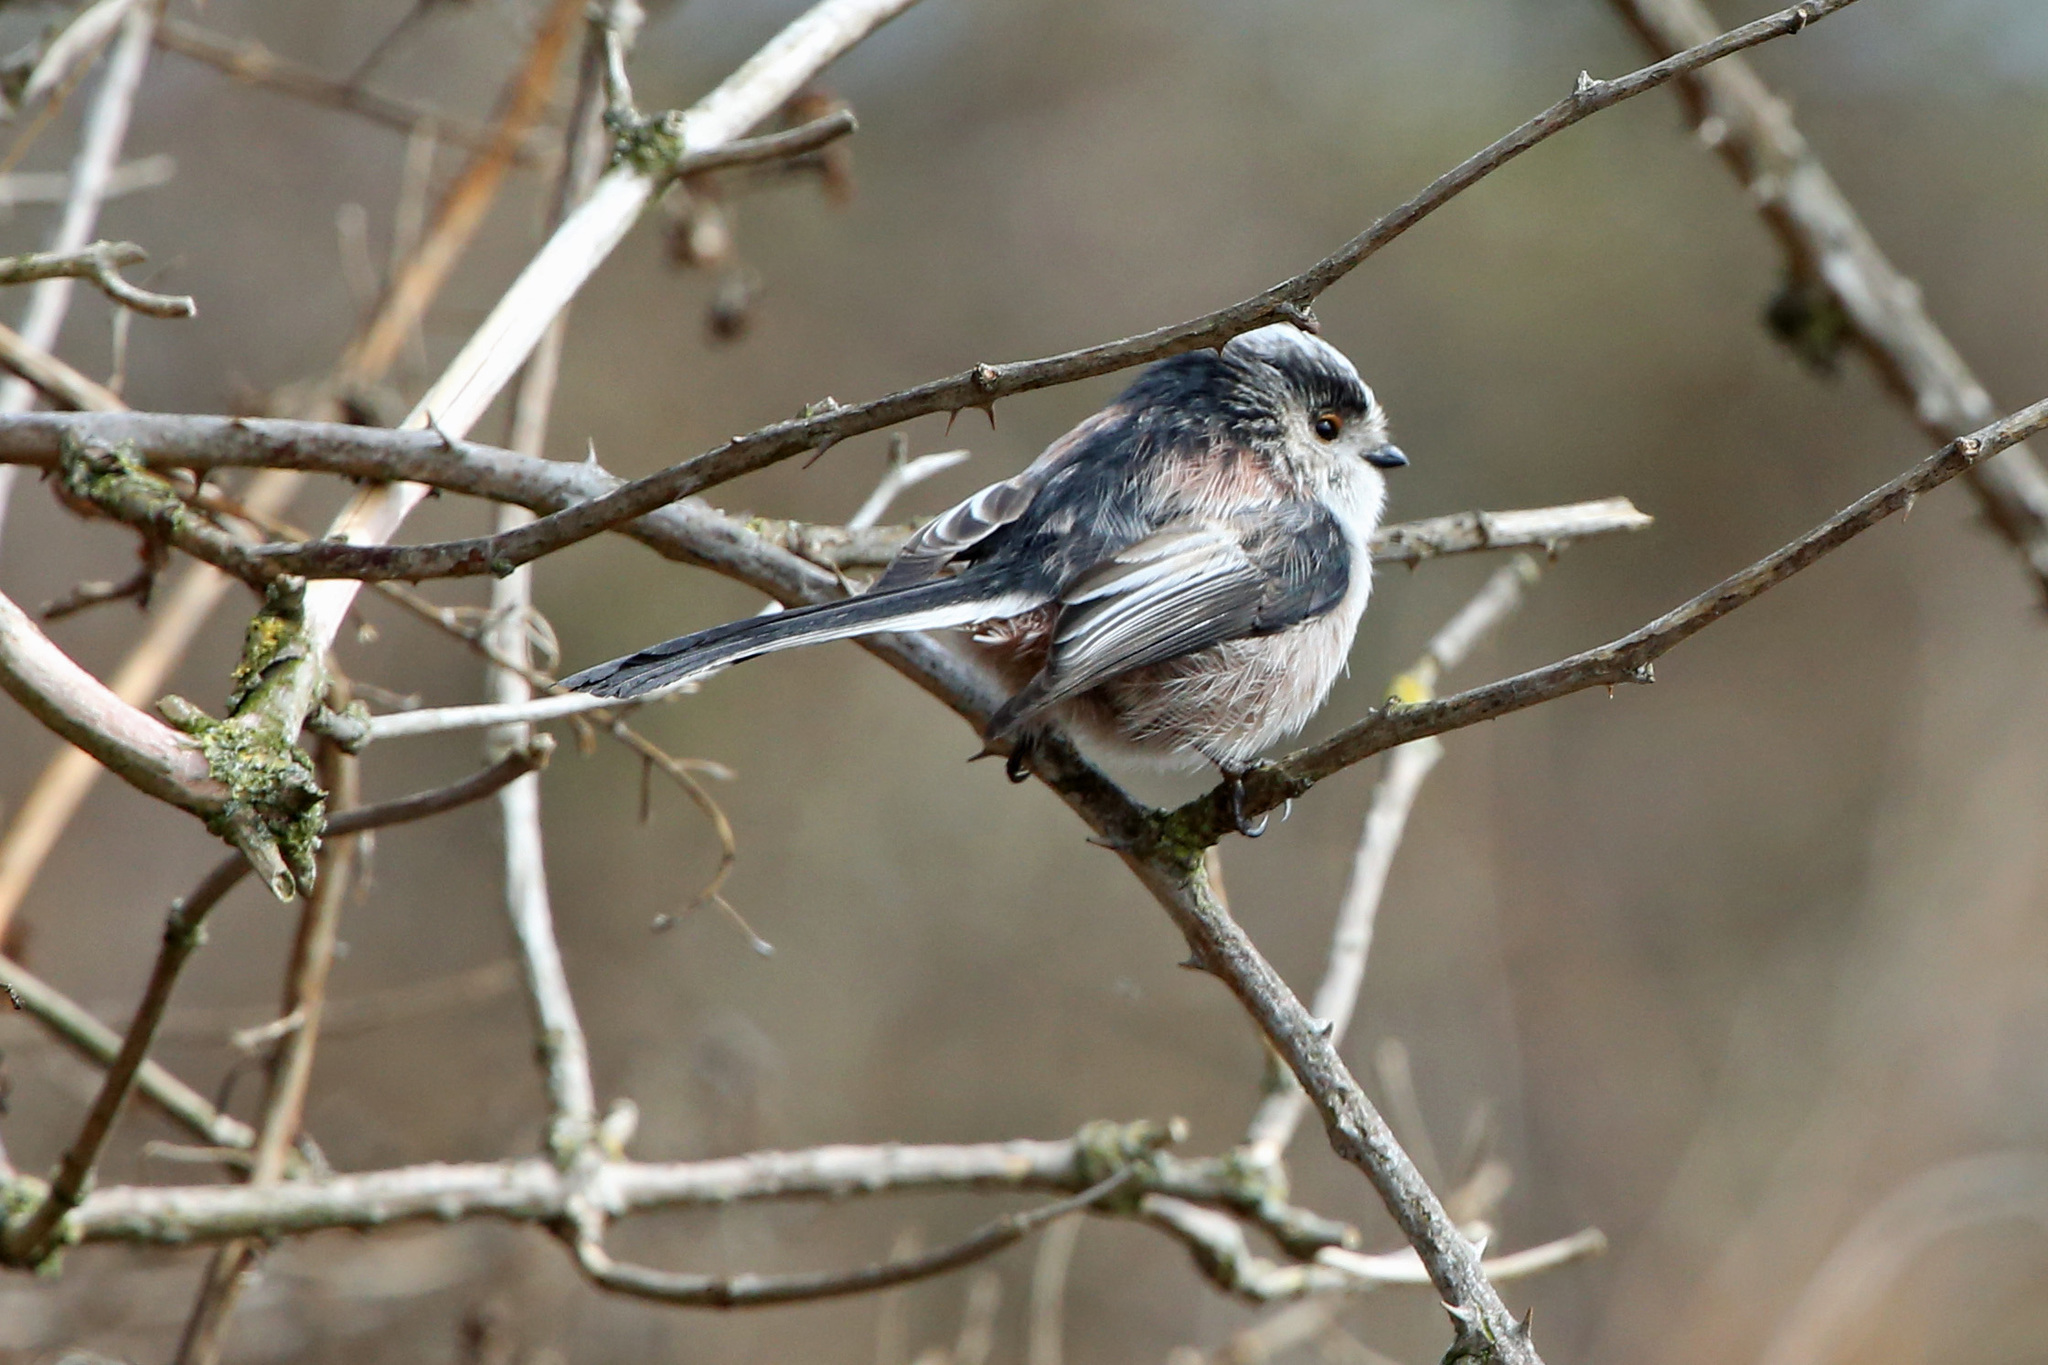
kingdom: Animalia
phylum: Chordata
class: Aves
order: Passeriformes
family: Aegithalidae
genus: Aegithalos
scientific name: Aegithalos caudatus
